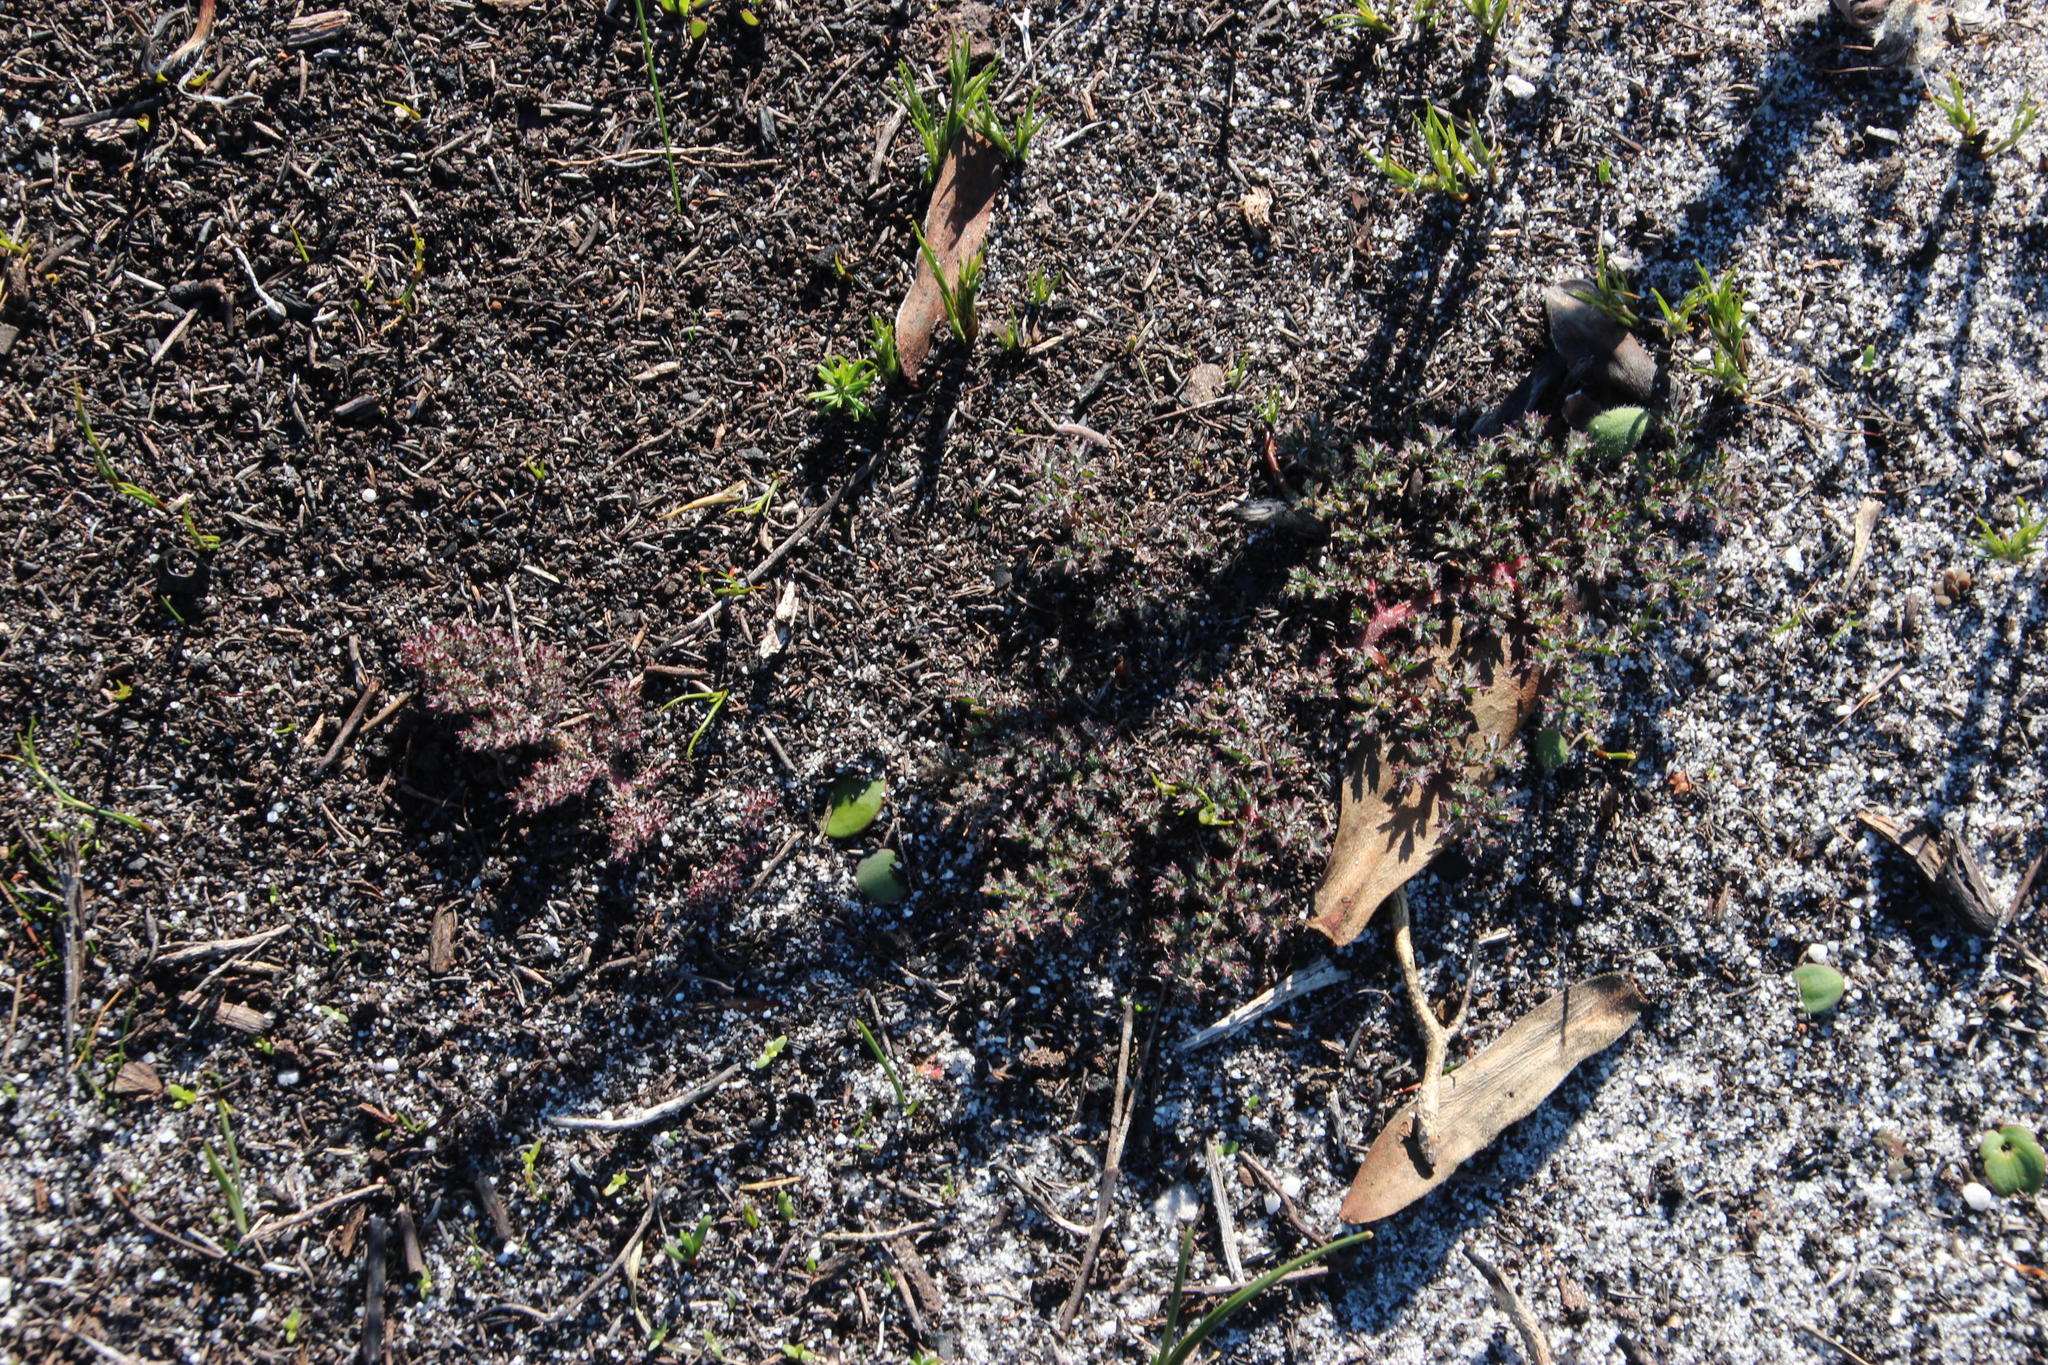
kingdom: Plantae
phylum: Tracheophyta
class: Magnoliopsida
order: Geraniales
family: Geraniaceae
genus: Pelargonium
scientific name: Pelargonium triste
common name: Night-scent pelargonium
